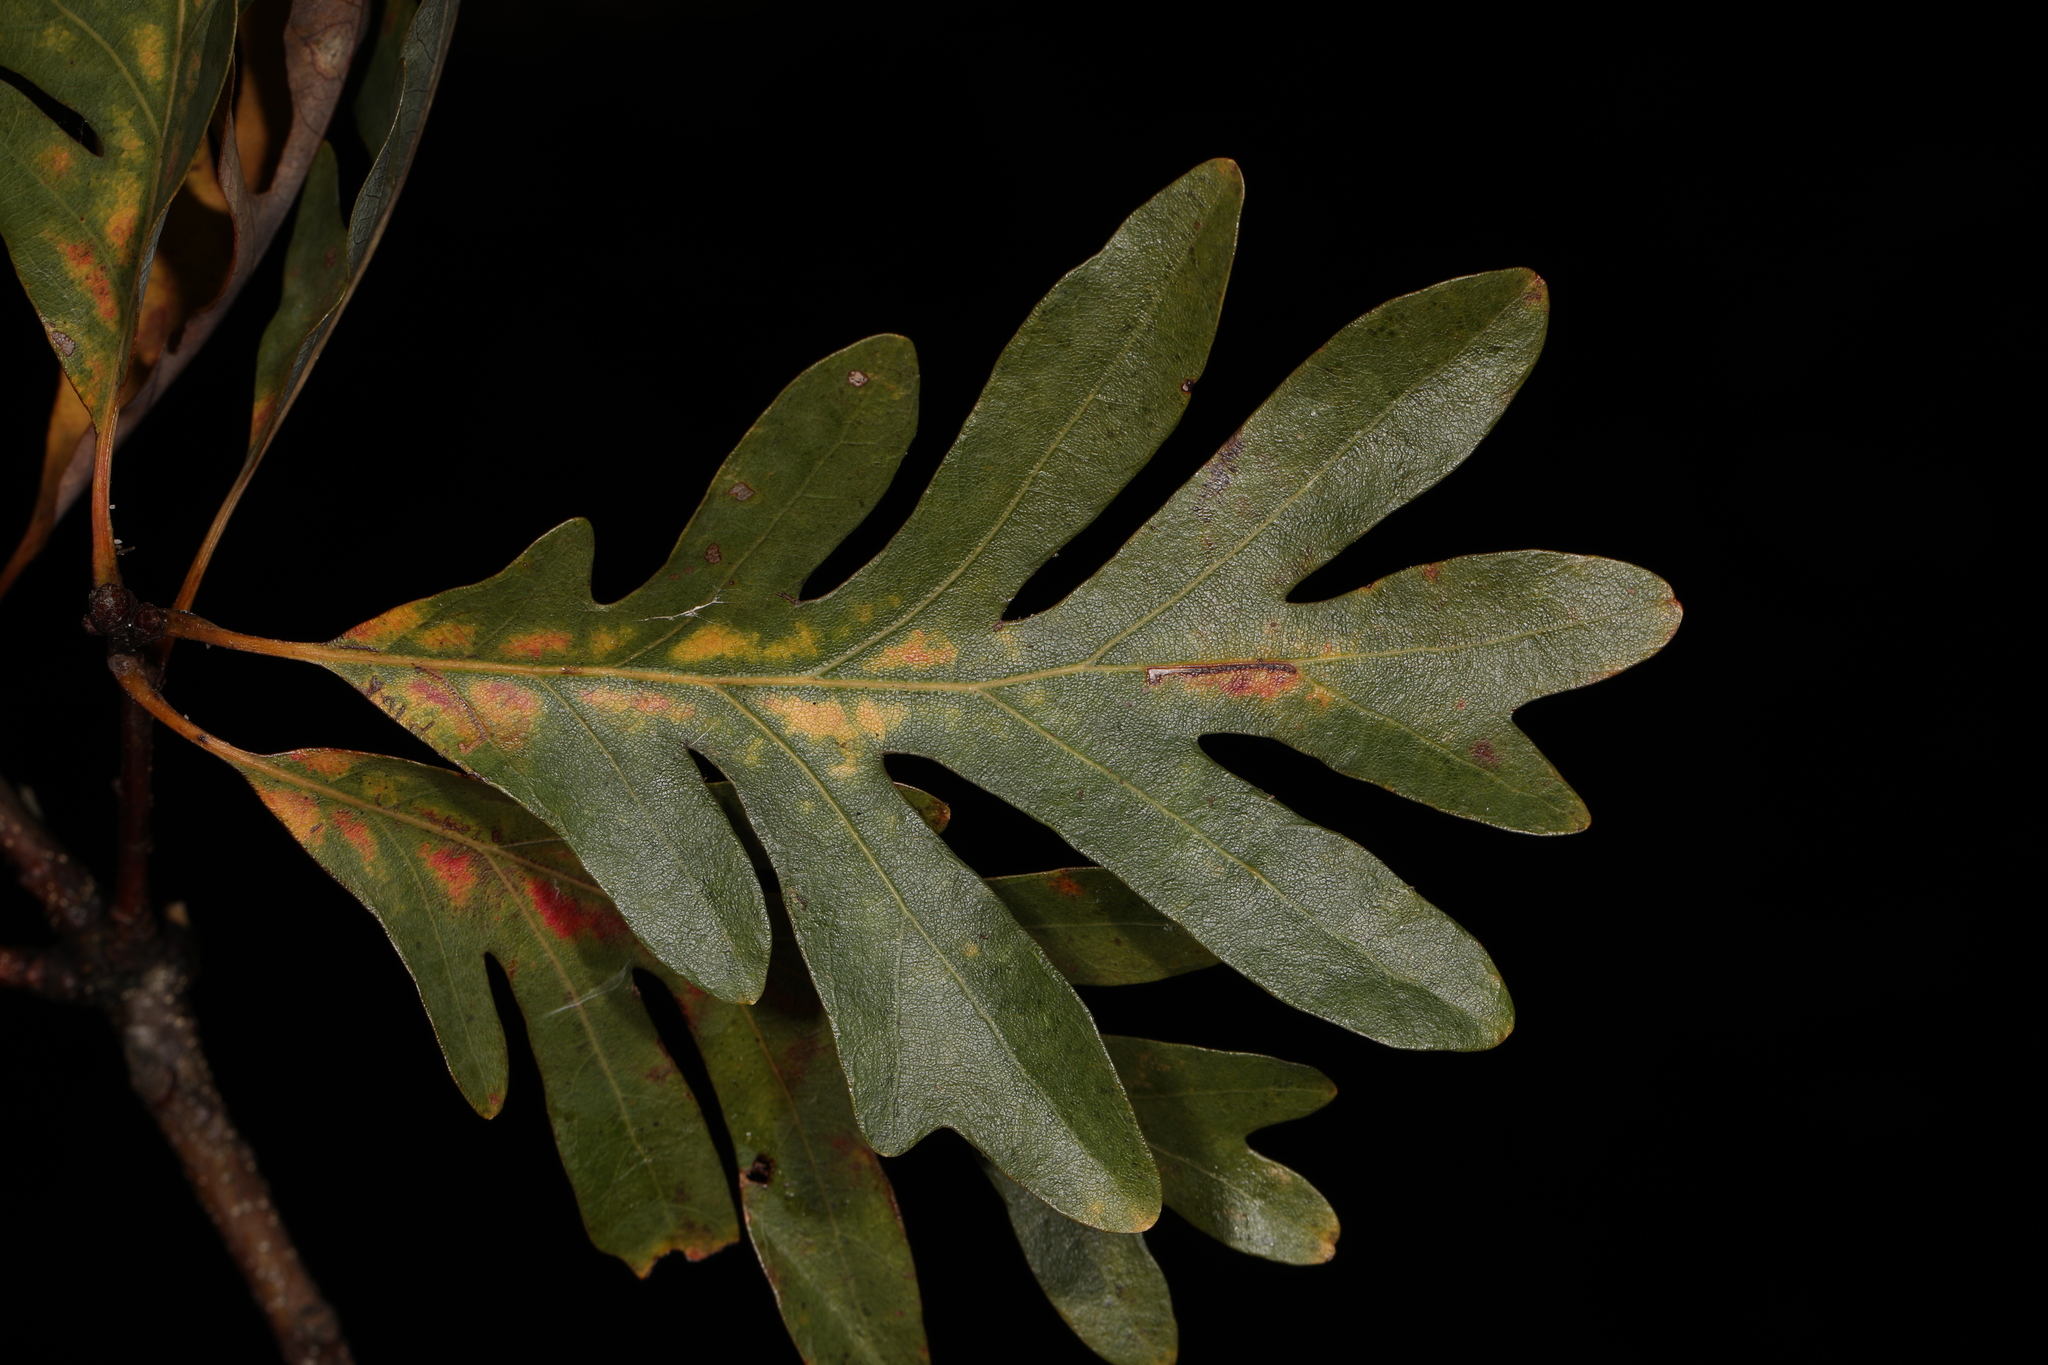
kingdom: Plantae
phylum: Tracheophyta
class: Magnoliopsida
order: Fagales
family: Fagaceae
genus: Quercus
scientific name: Quercus alba
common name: White oak
